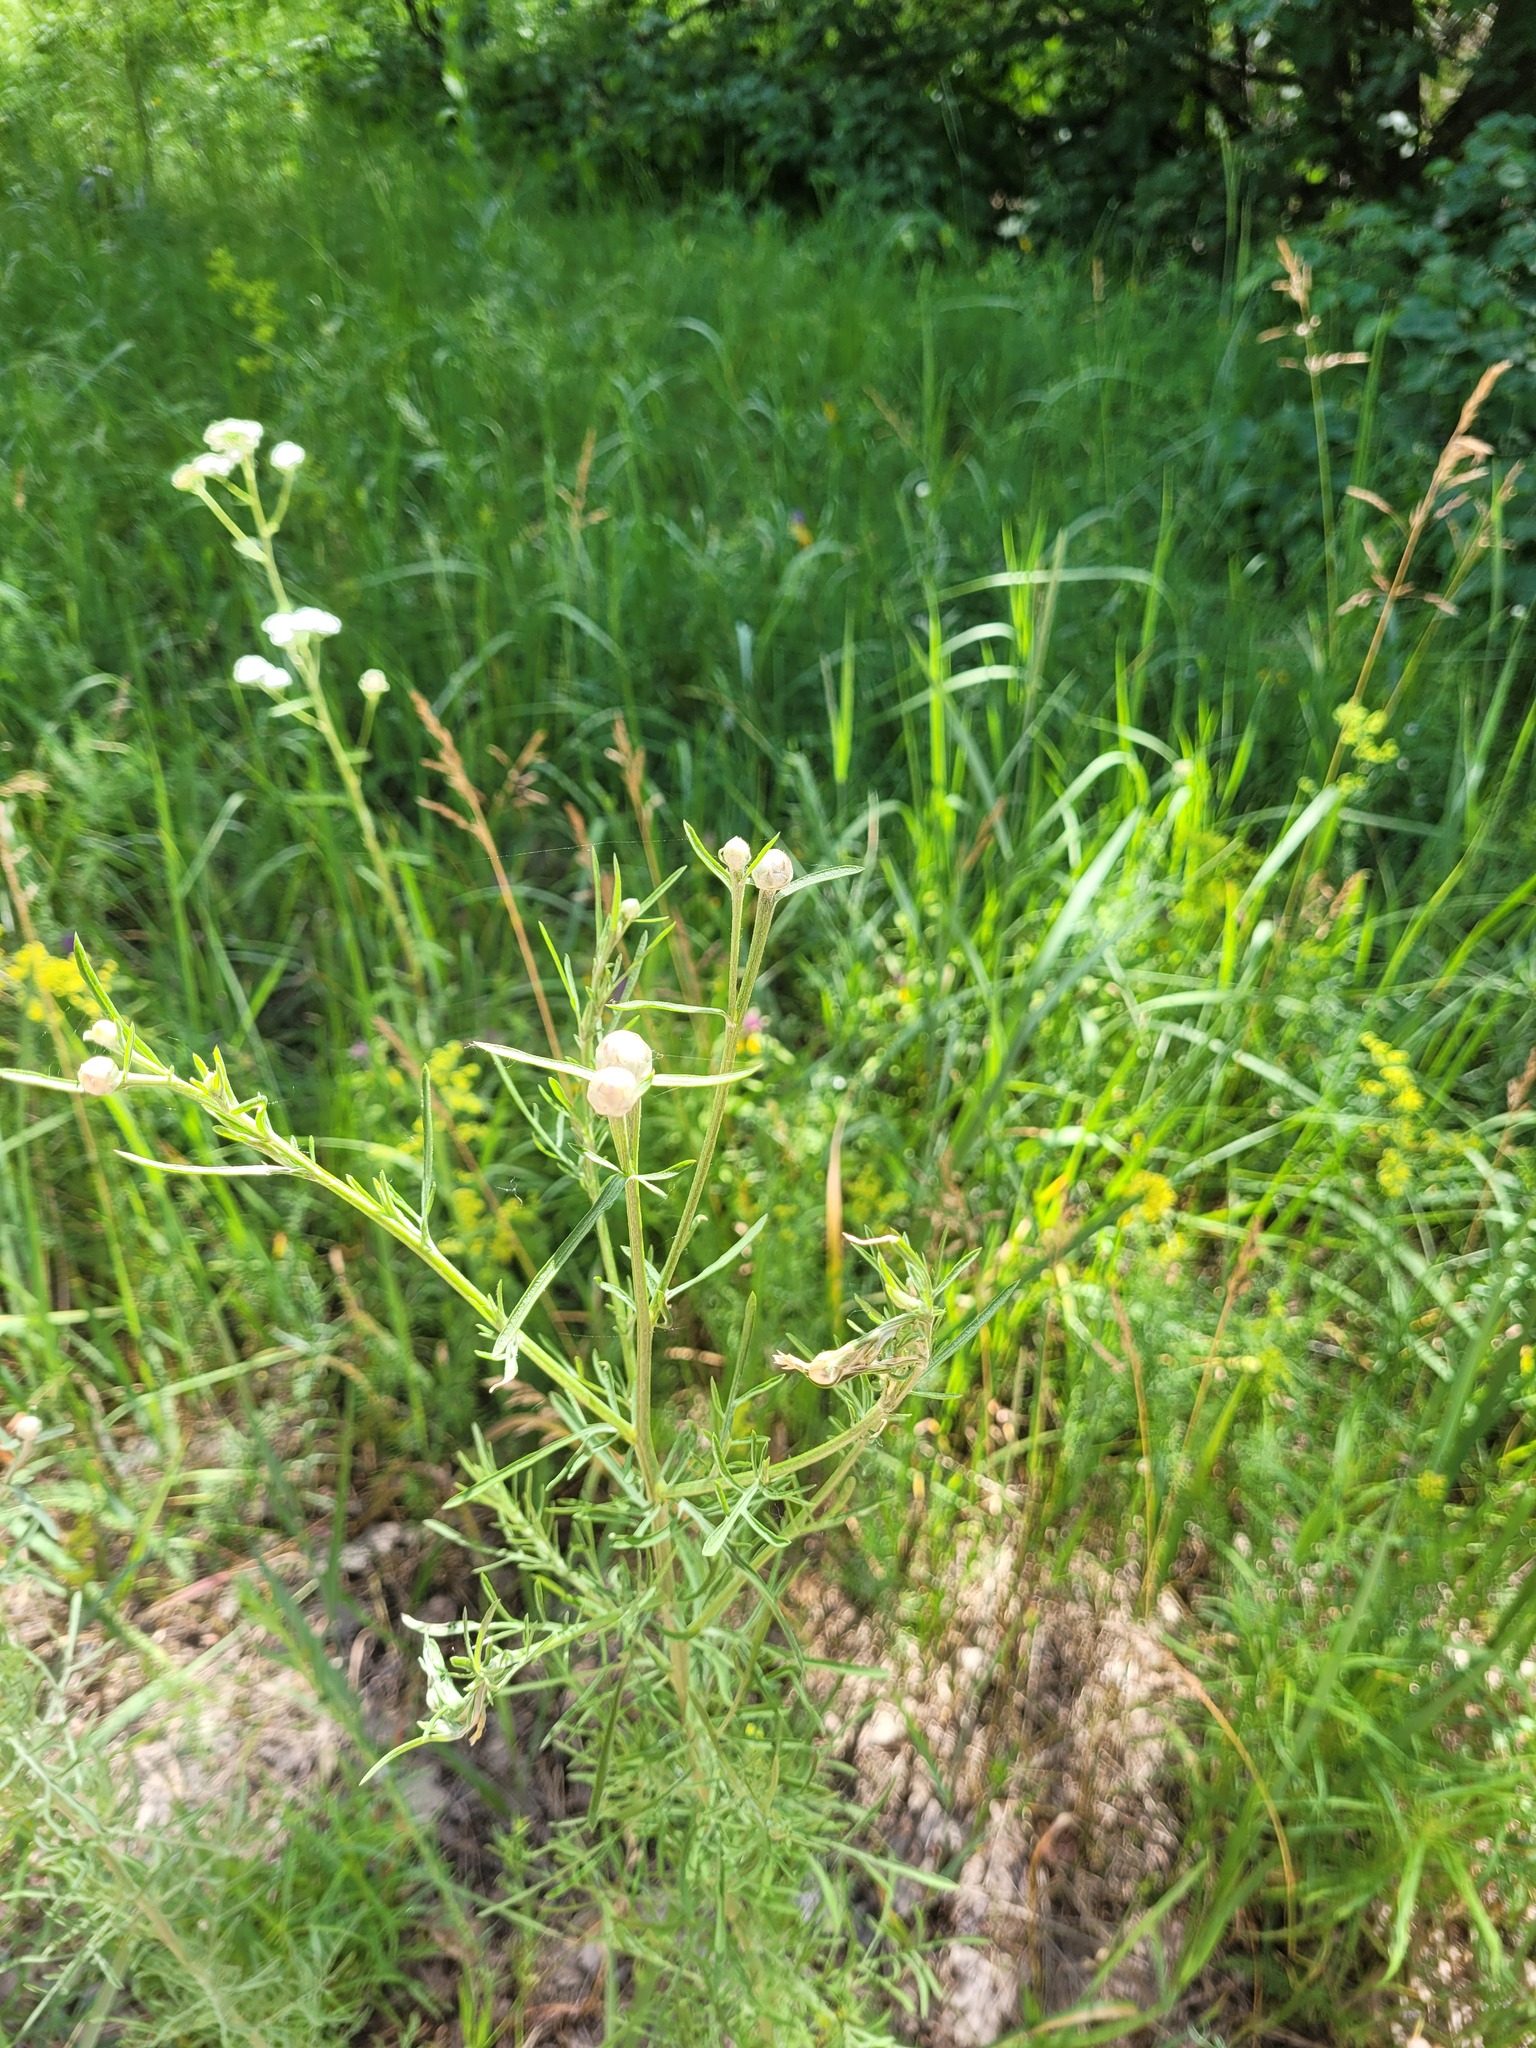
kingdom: Plantae
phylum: Tracheophyta
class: Magnoliopsida
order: Asterales
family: Asteraceae
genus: Centaurea
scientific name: Centaurea pineticola
